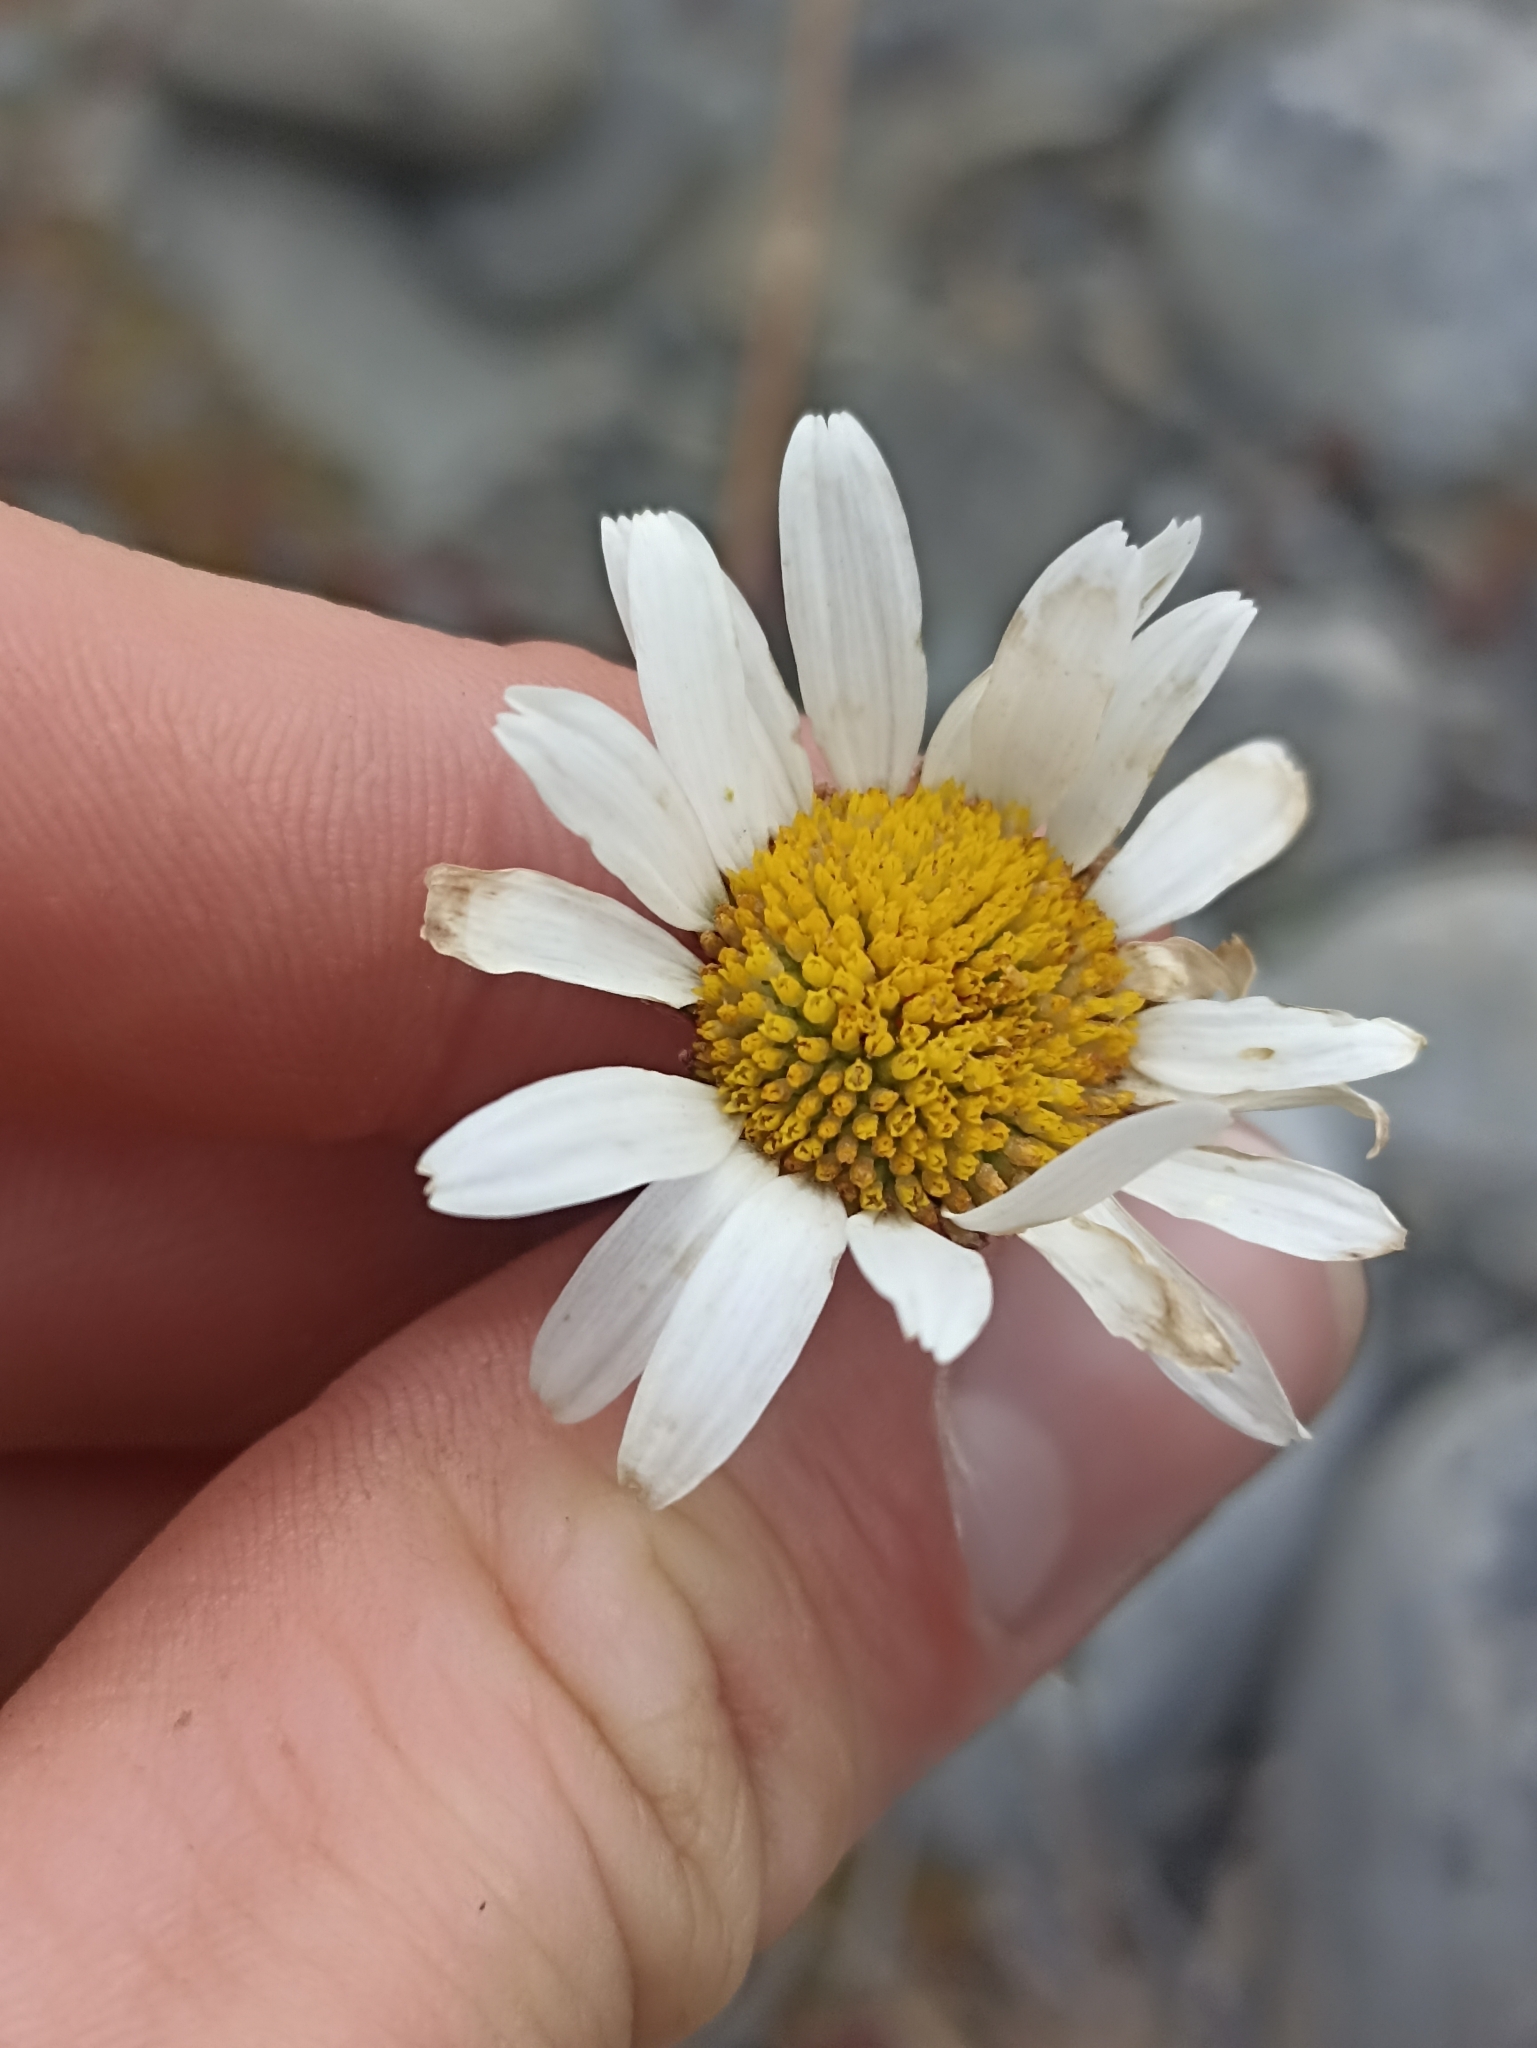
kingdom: Plantae
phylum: Tracheophyta
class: Magnoliopsida
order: Asterales
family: Asteraceae
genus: Brachyscome
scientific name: Brachyscome sinclairii
